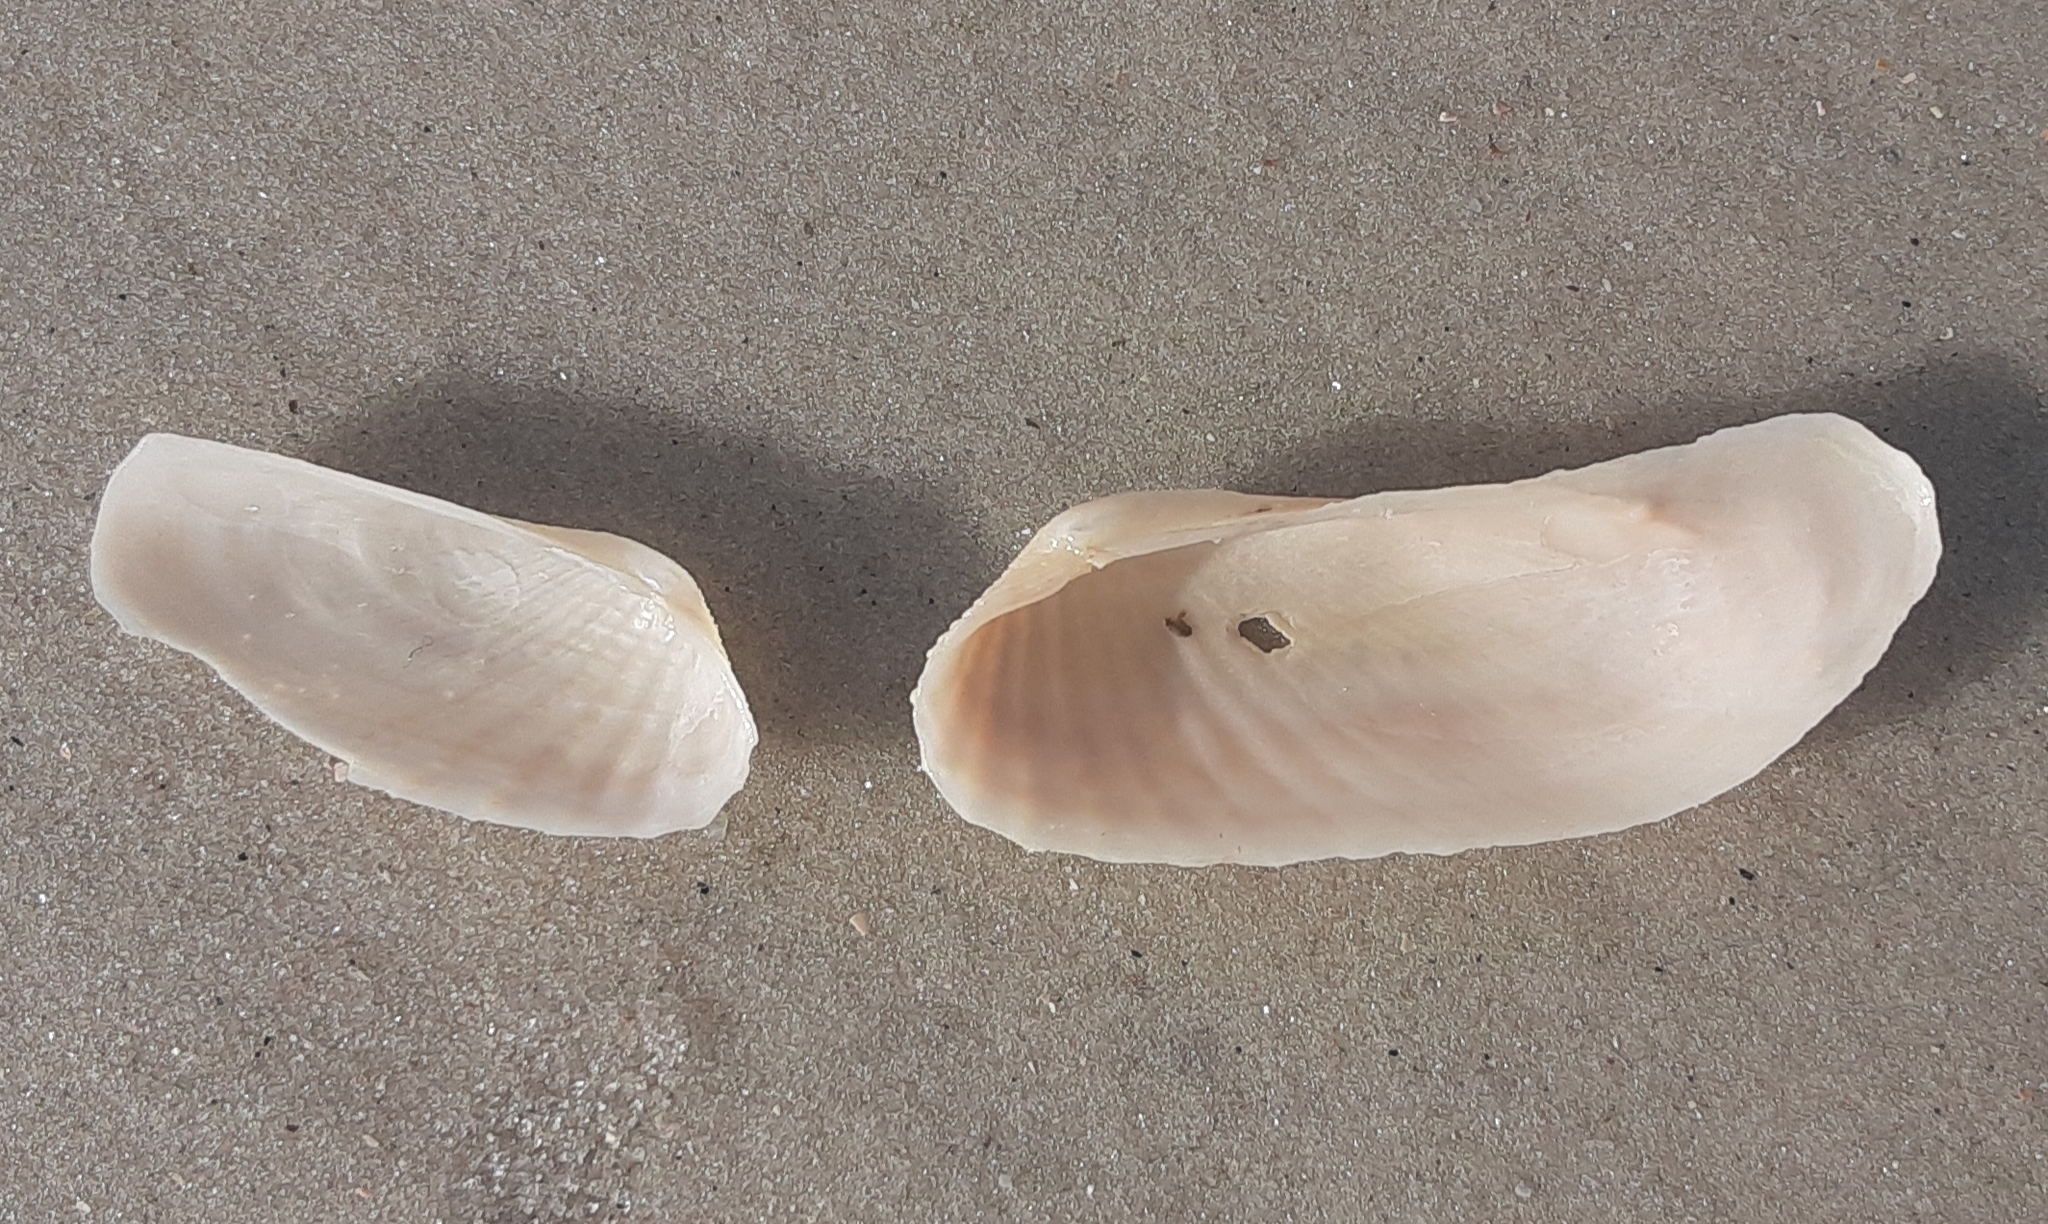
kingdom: Animalia
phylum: Mollusca
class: Bivalvia
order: Venerida
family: Veneridae
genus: Petricolaria
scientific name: Petricolaria pholadiformis
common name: American piddock
